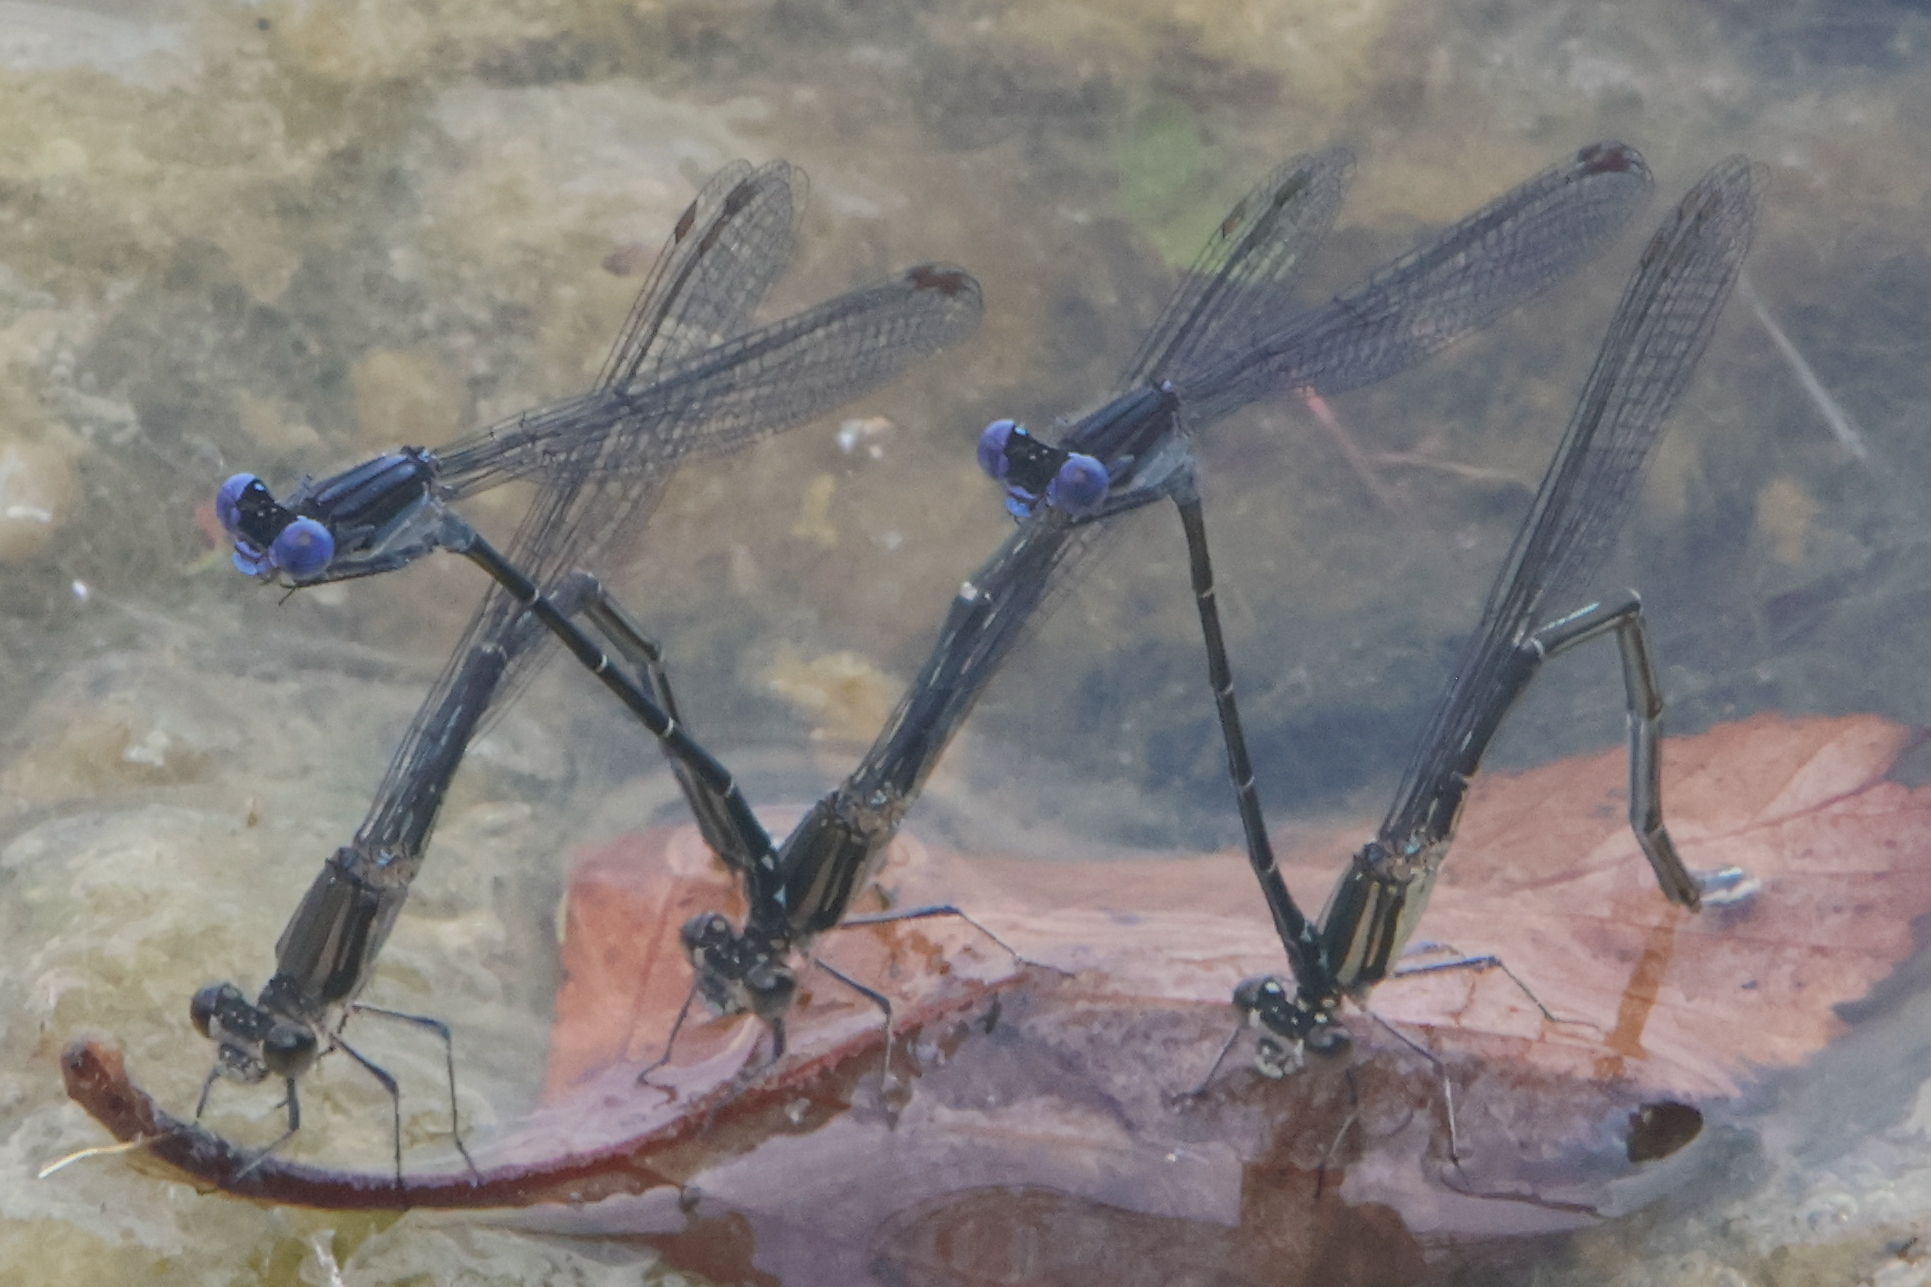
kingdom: Animalia
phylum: Arthropoda
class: Insecta
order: Odonata
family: Coenagrionidae
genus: Argia
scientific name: Argia translata
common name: Dusky dancer
